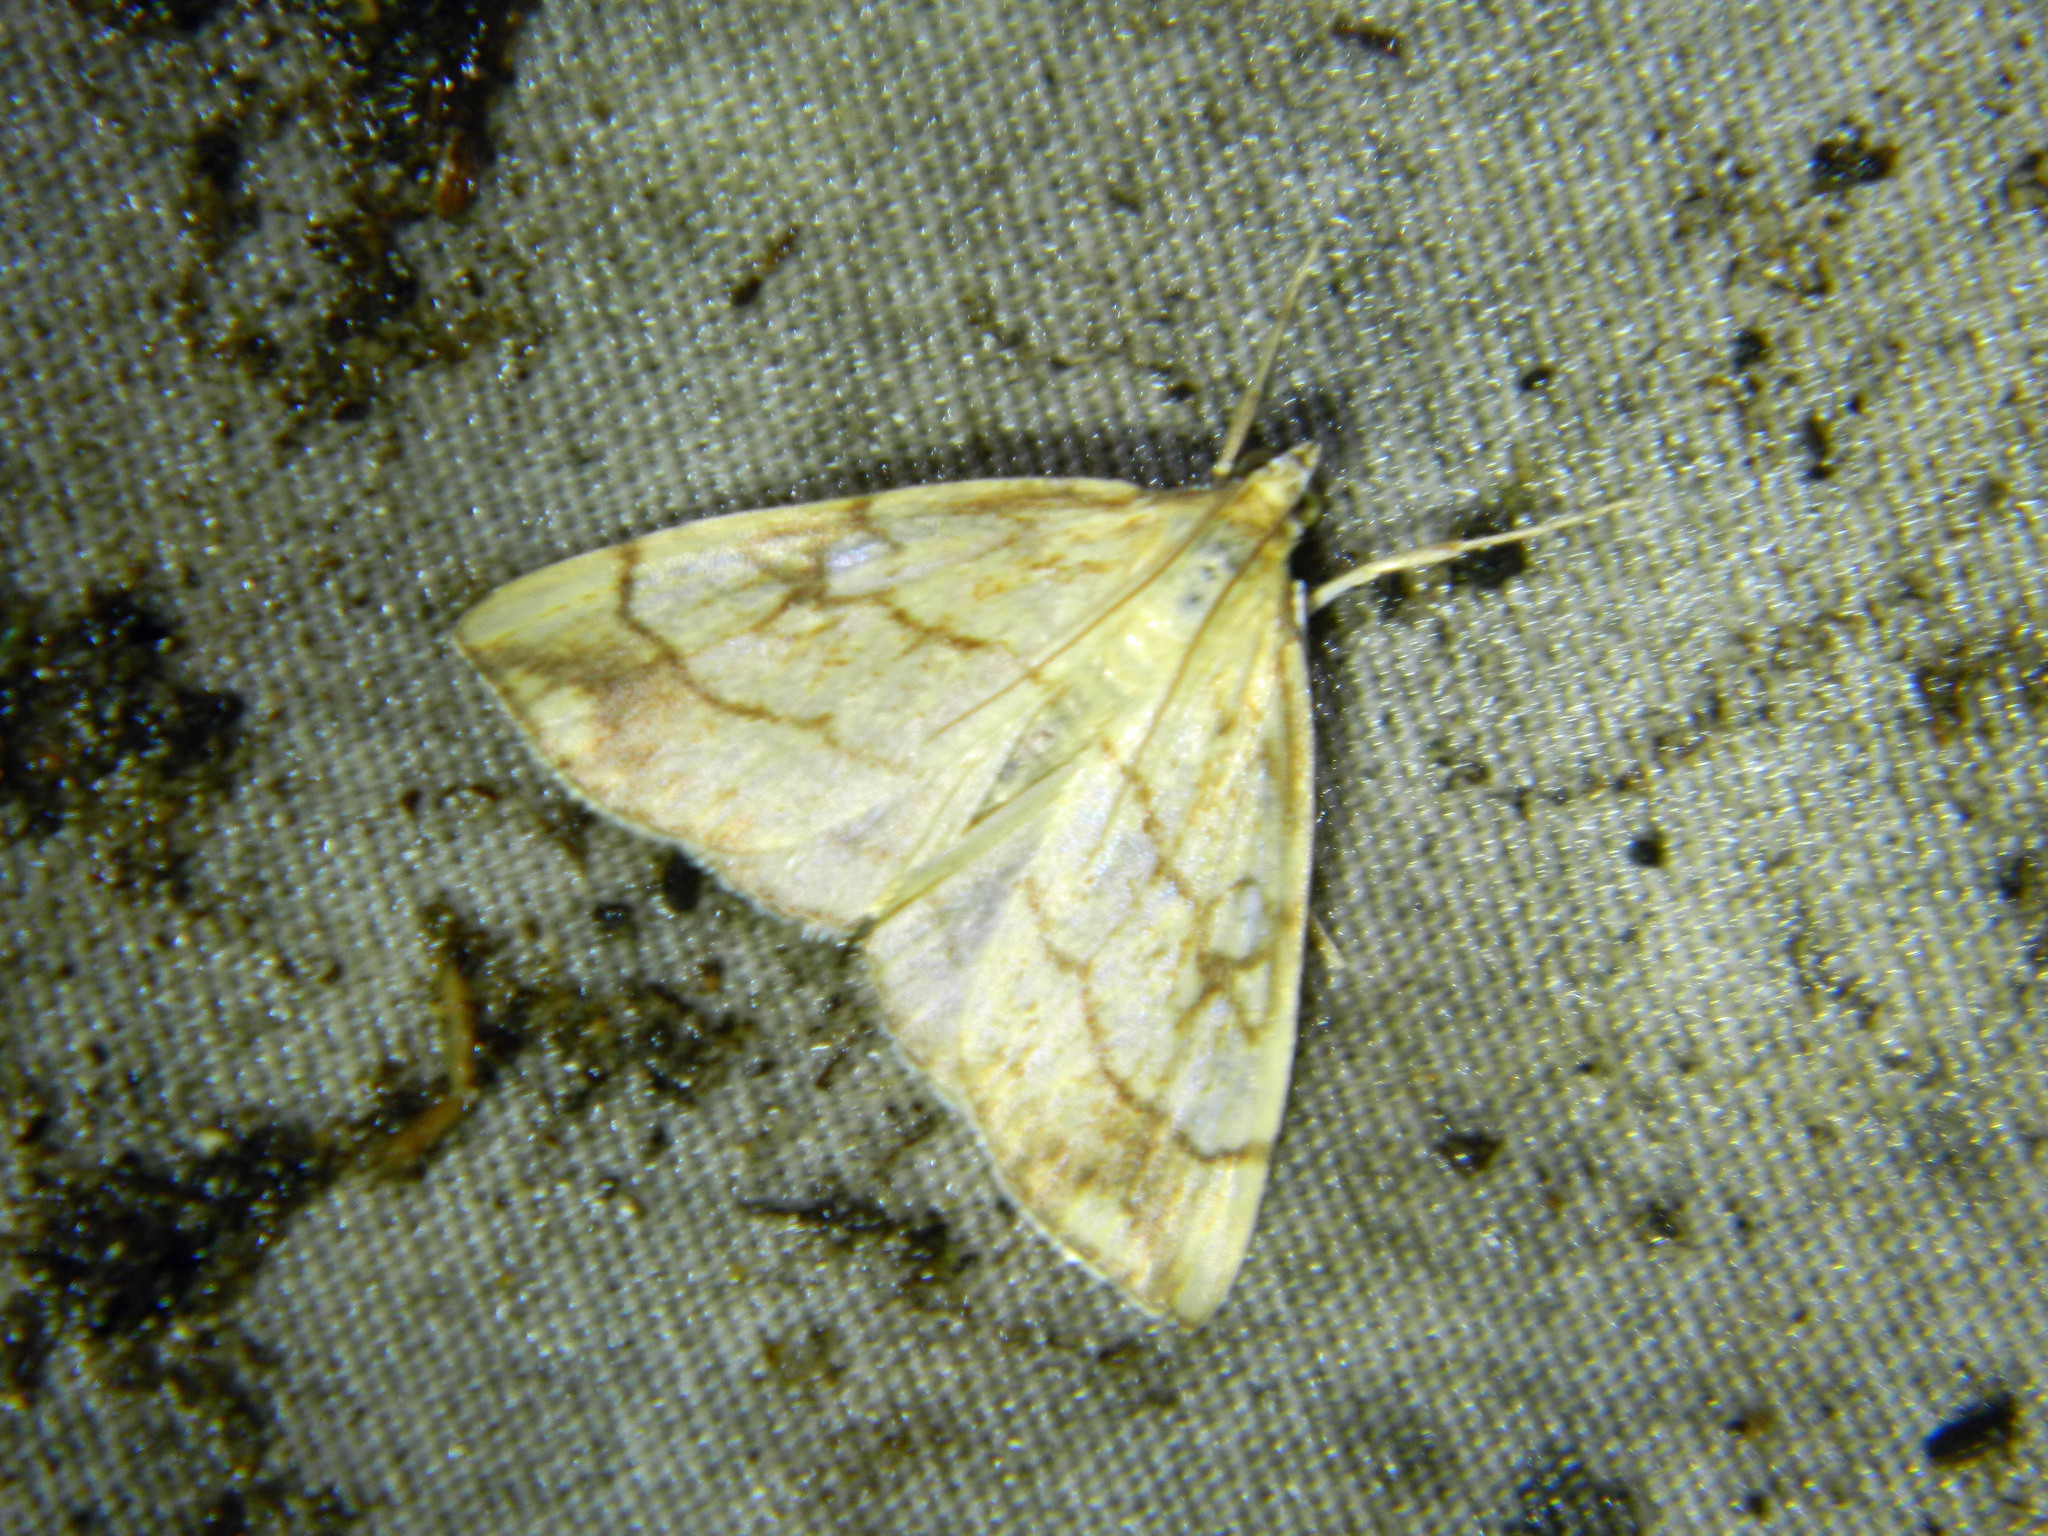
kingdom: Animalia
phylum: Arthropoda
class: Insecta
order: Lepidoptera
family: Crambidae
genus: Evergestis
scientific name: Evergestis pallidata
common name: Chequered pearl
